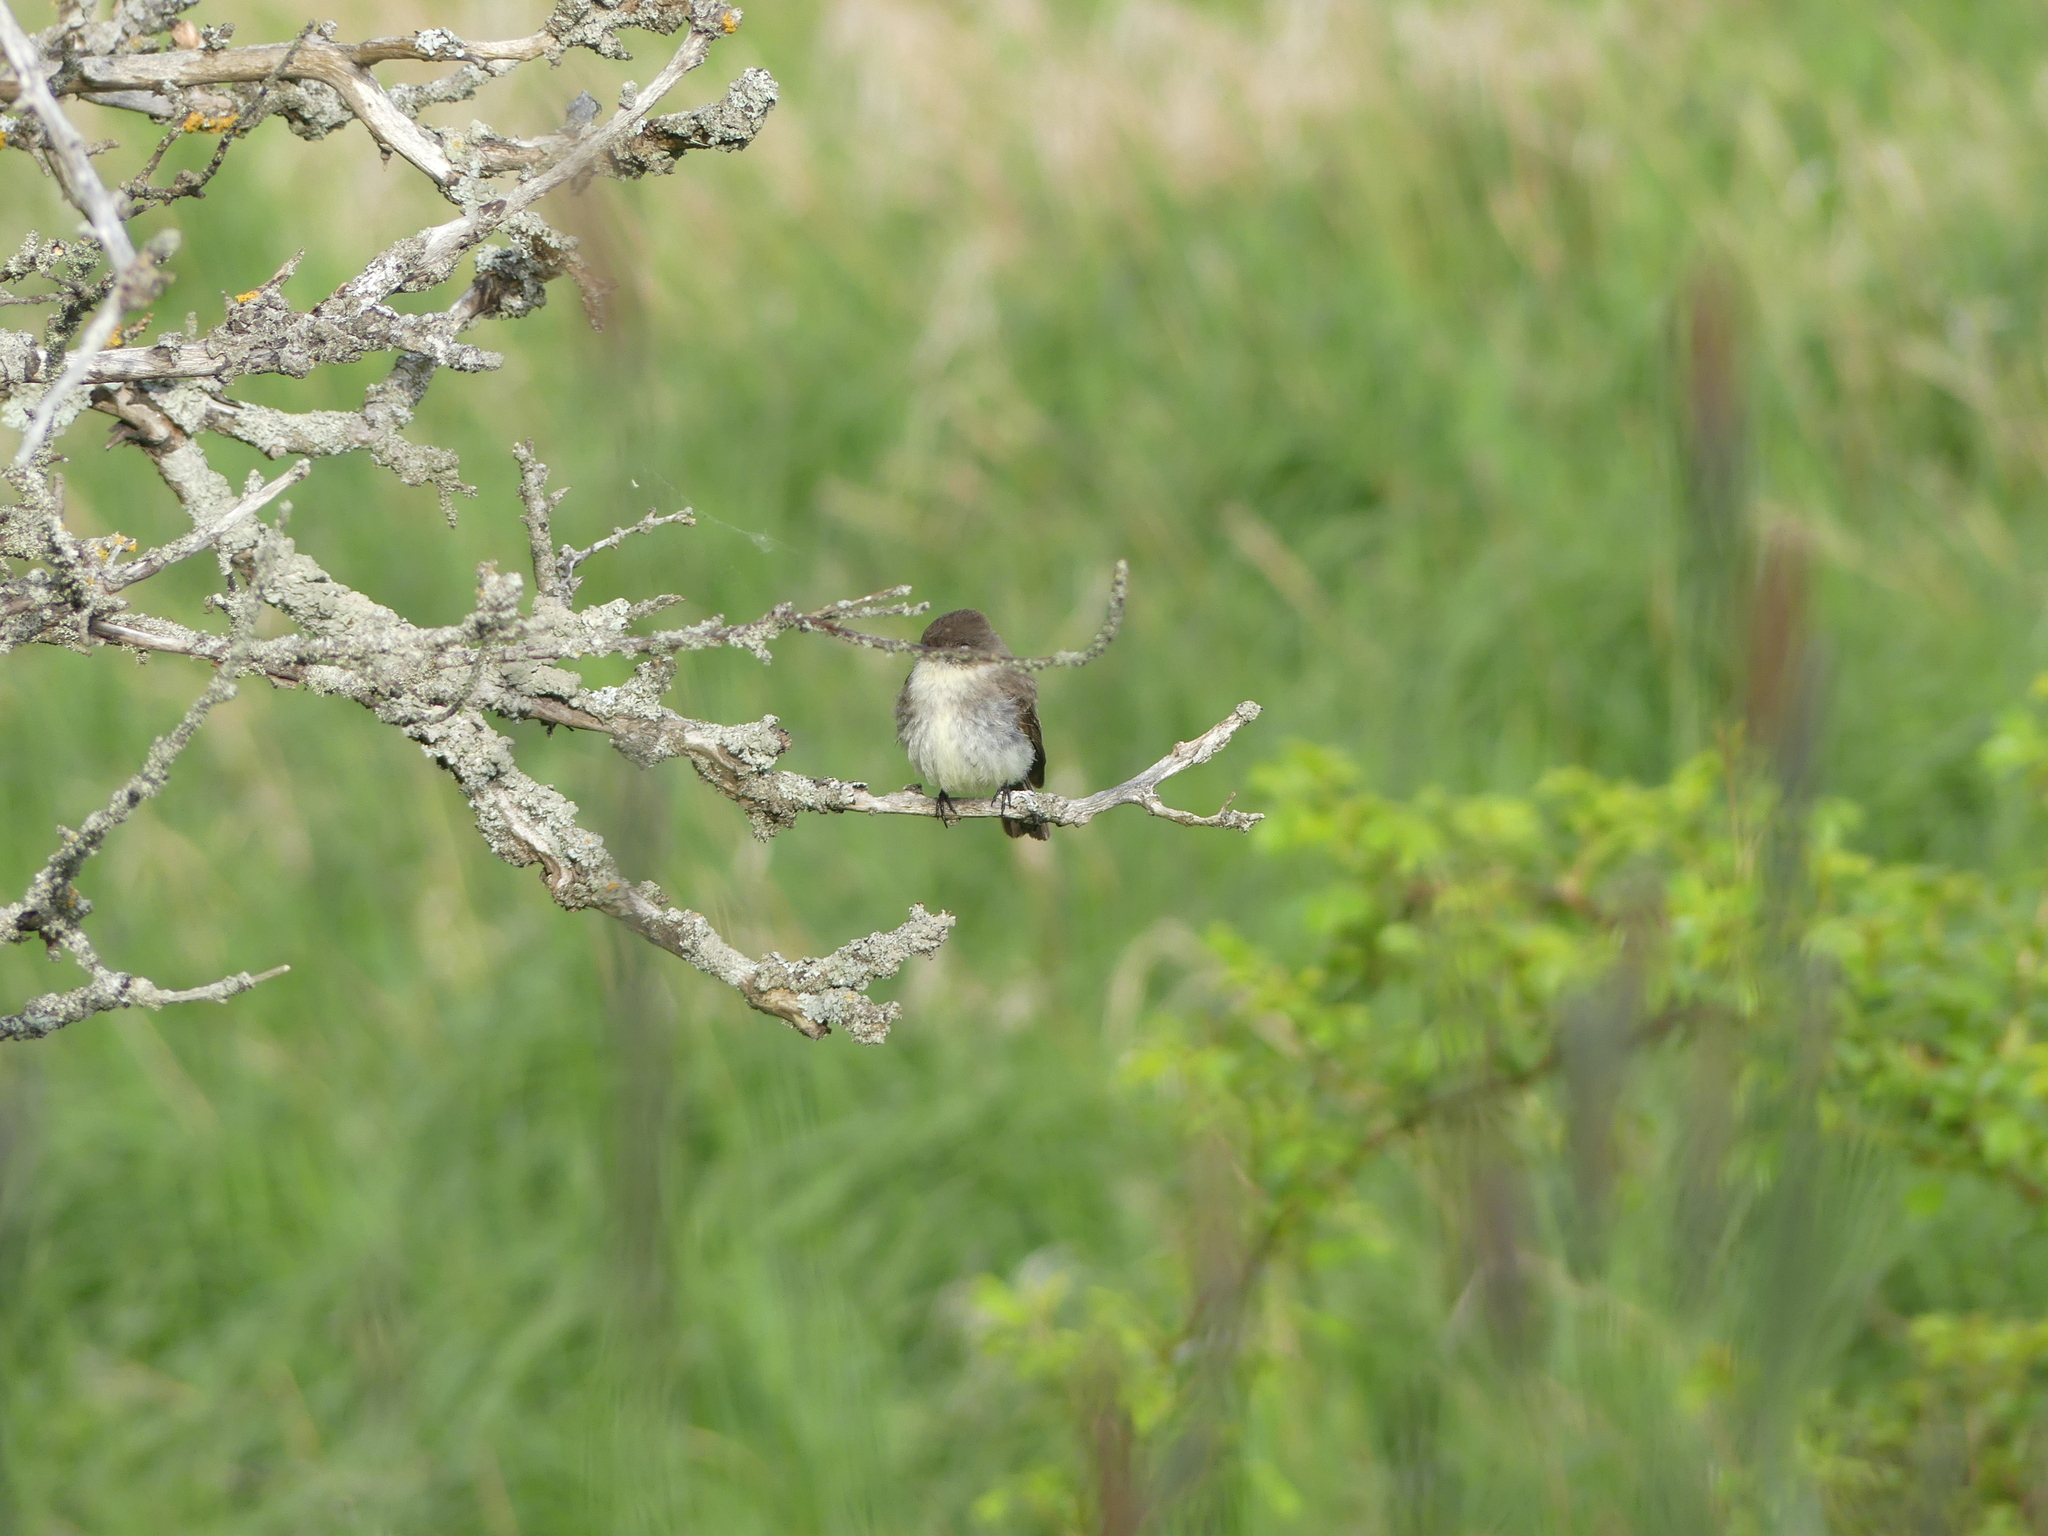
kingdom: Animalia
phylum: Chordata
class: Aves
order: Passeriformes
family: Tyrannidae
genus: Sayornis
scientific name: Sayornis phoebe
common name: Eastern phoebe
